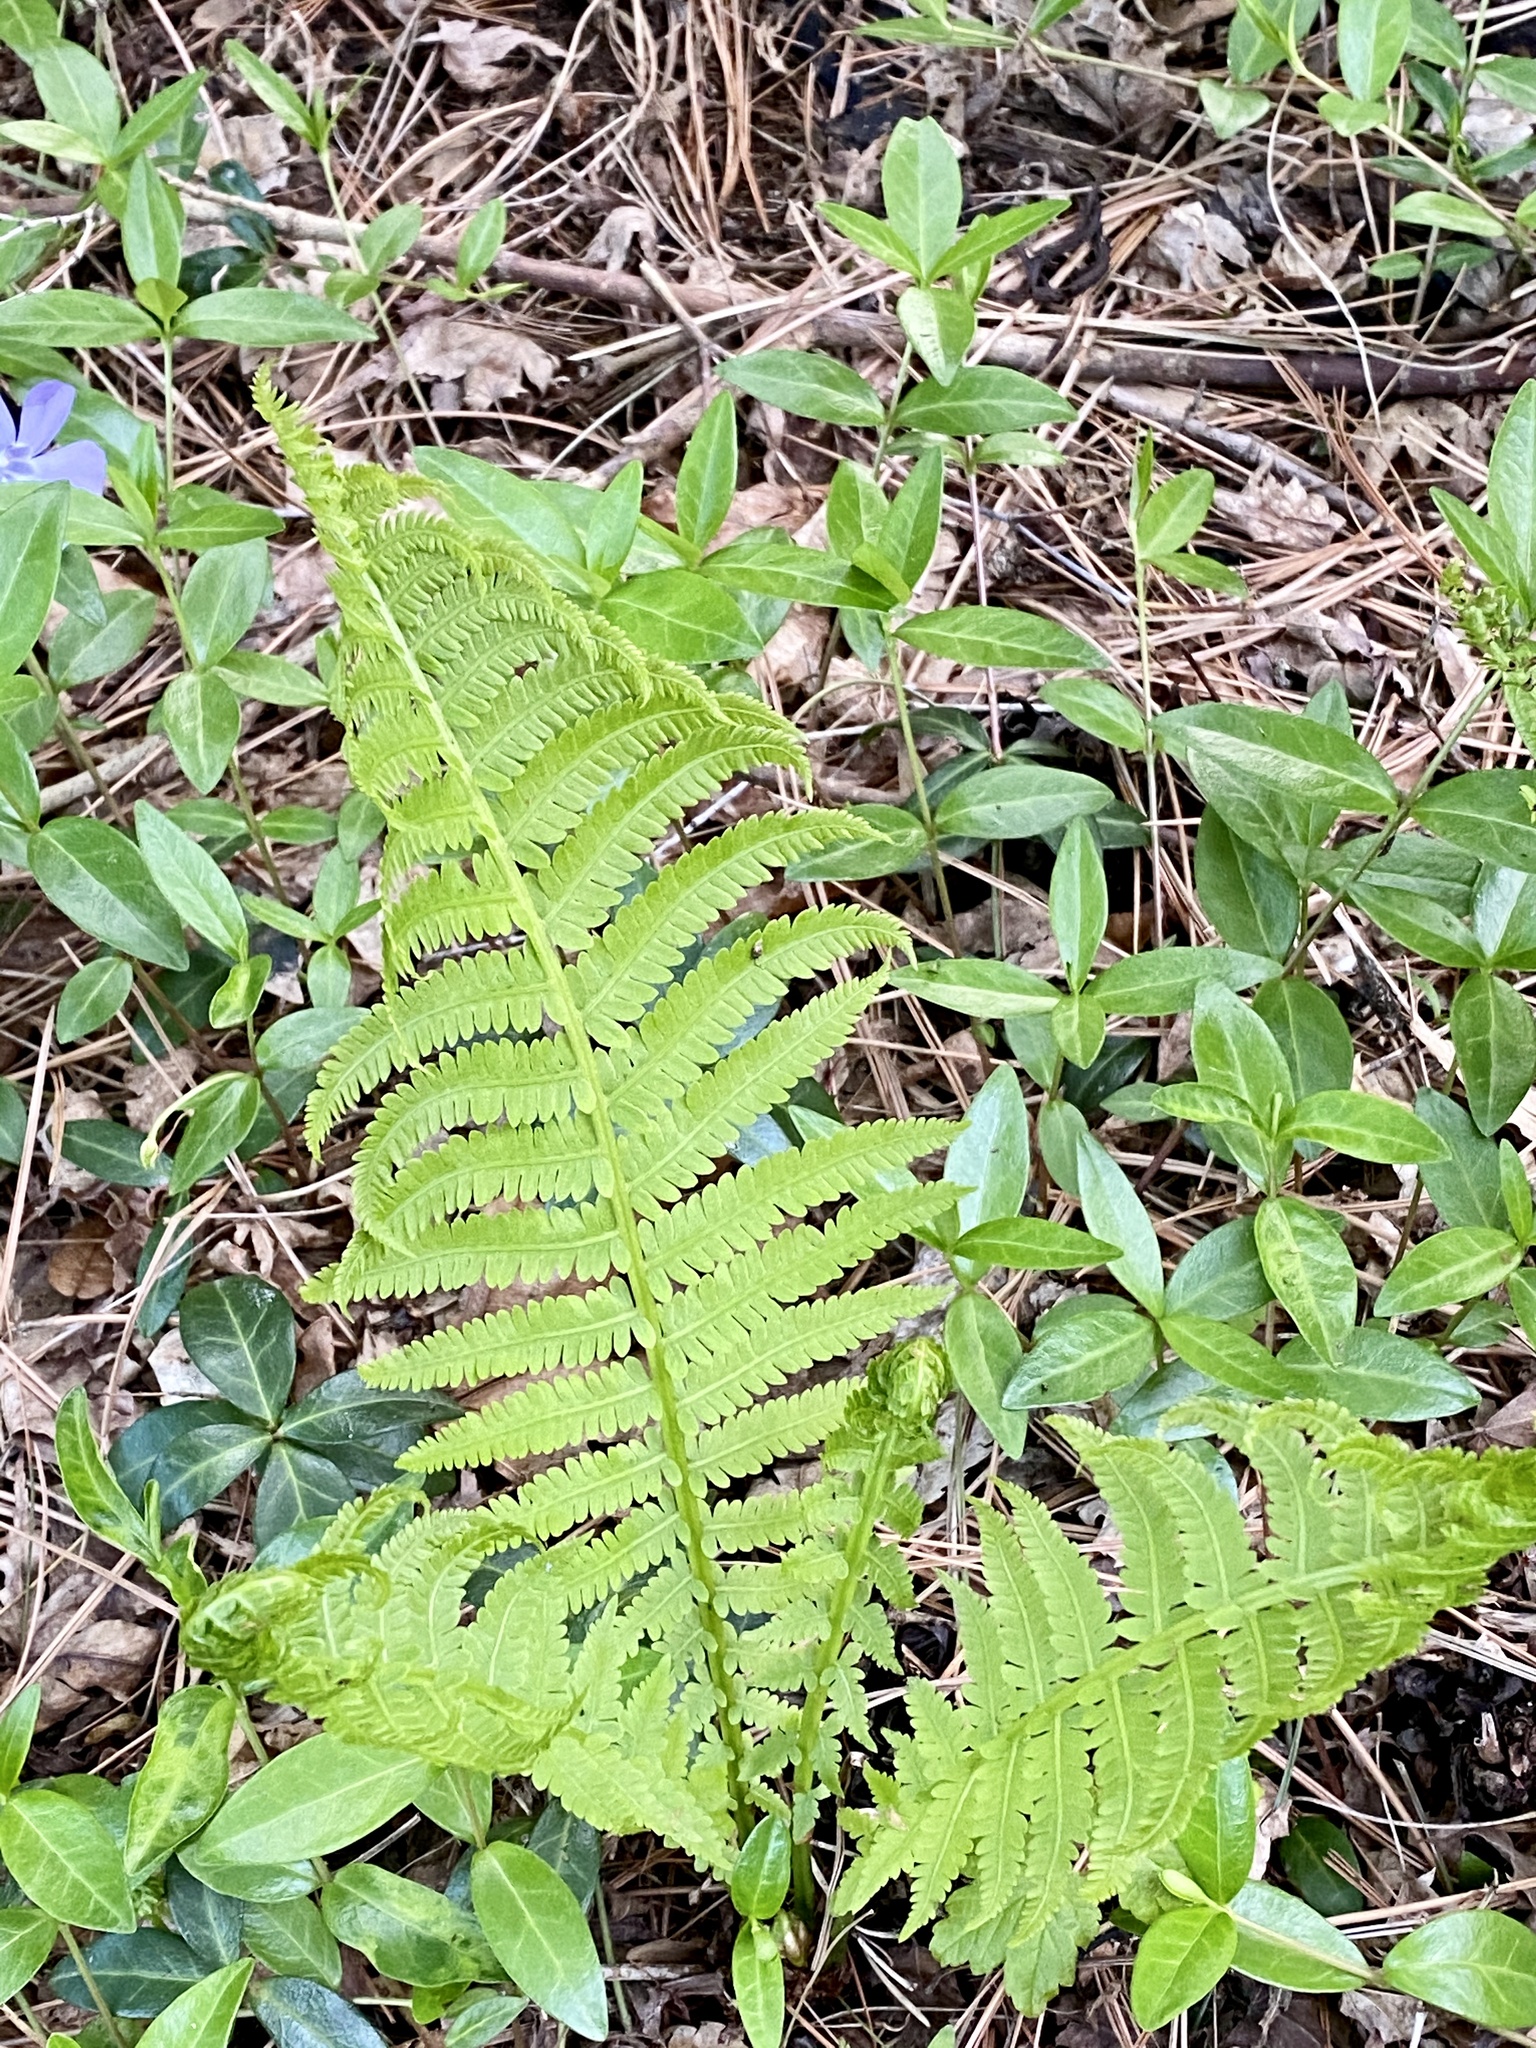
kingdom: Plantae
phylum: Tracheophyta
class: Polypodiopsida
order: Polypodiales
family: Onocleaceae
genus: Matteuccia
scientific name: Matteuccia struthiopteris
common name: Ostrich fern
